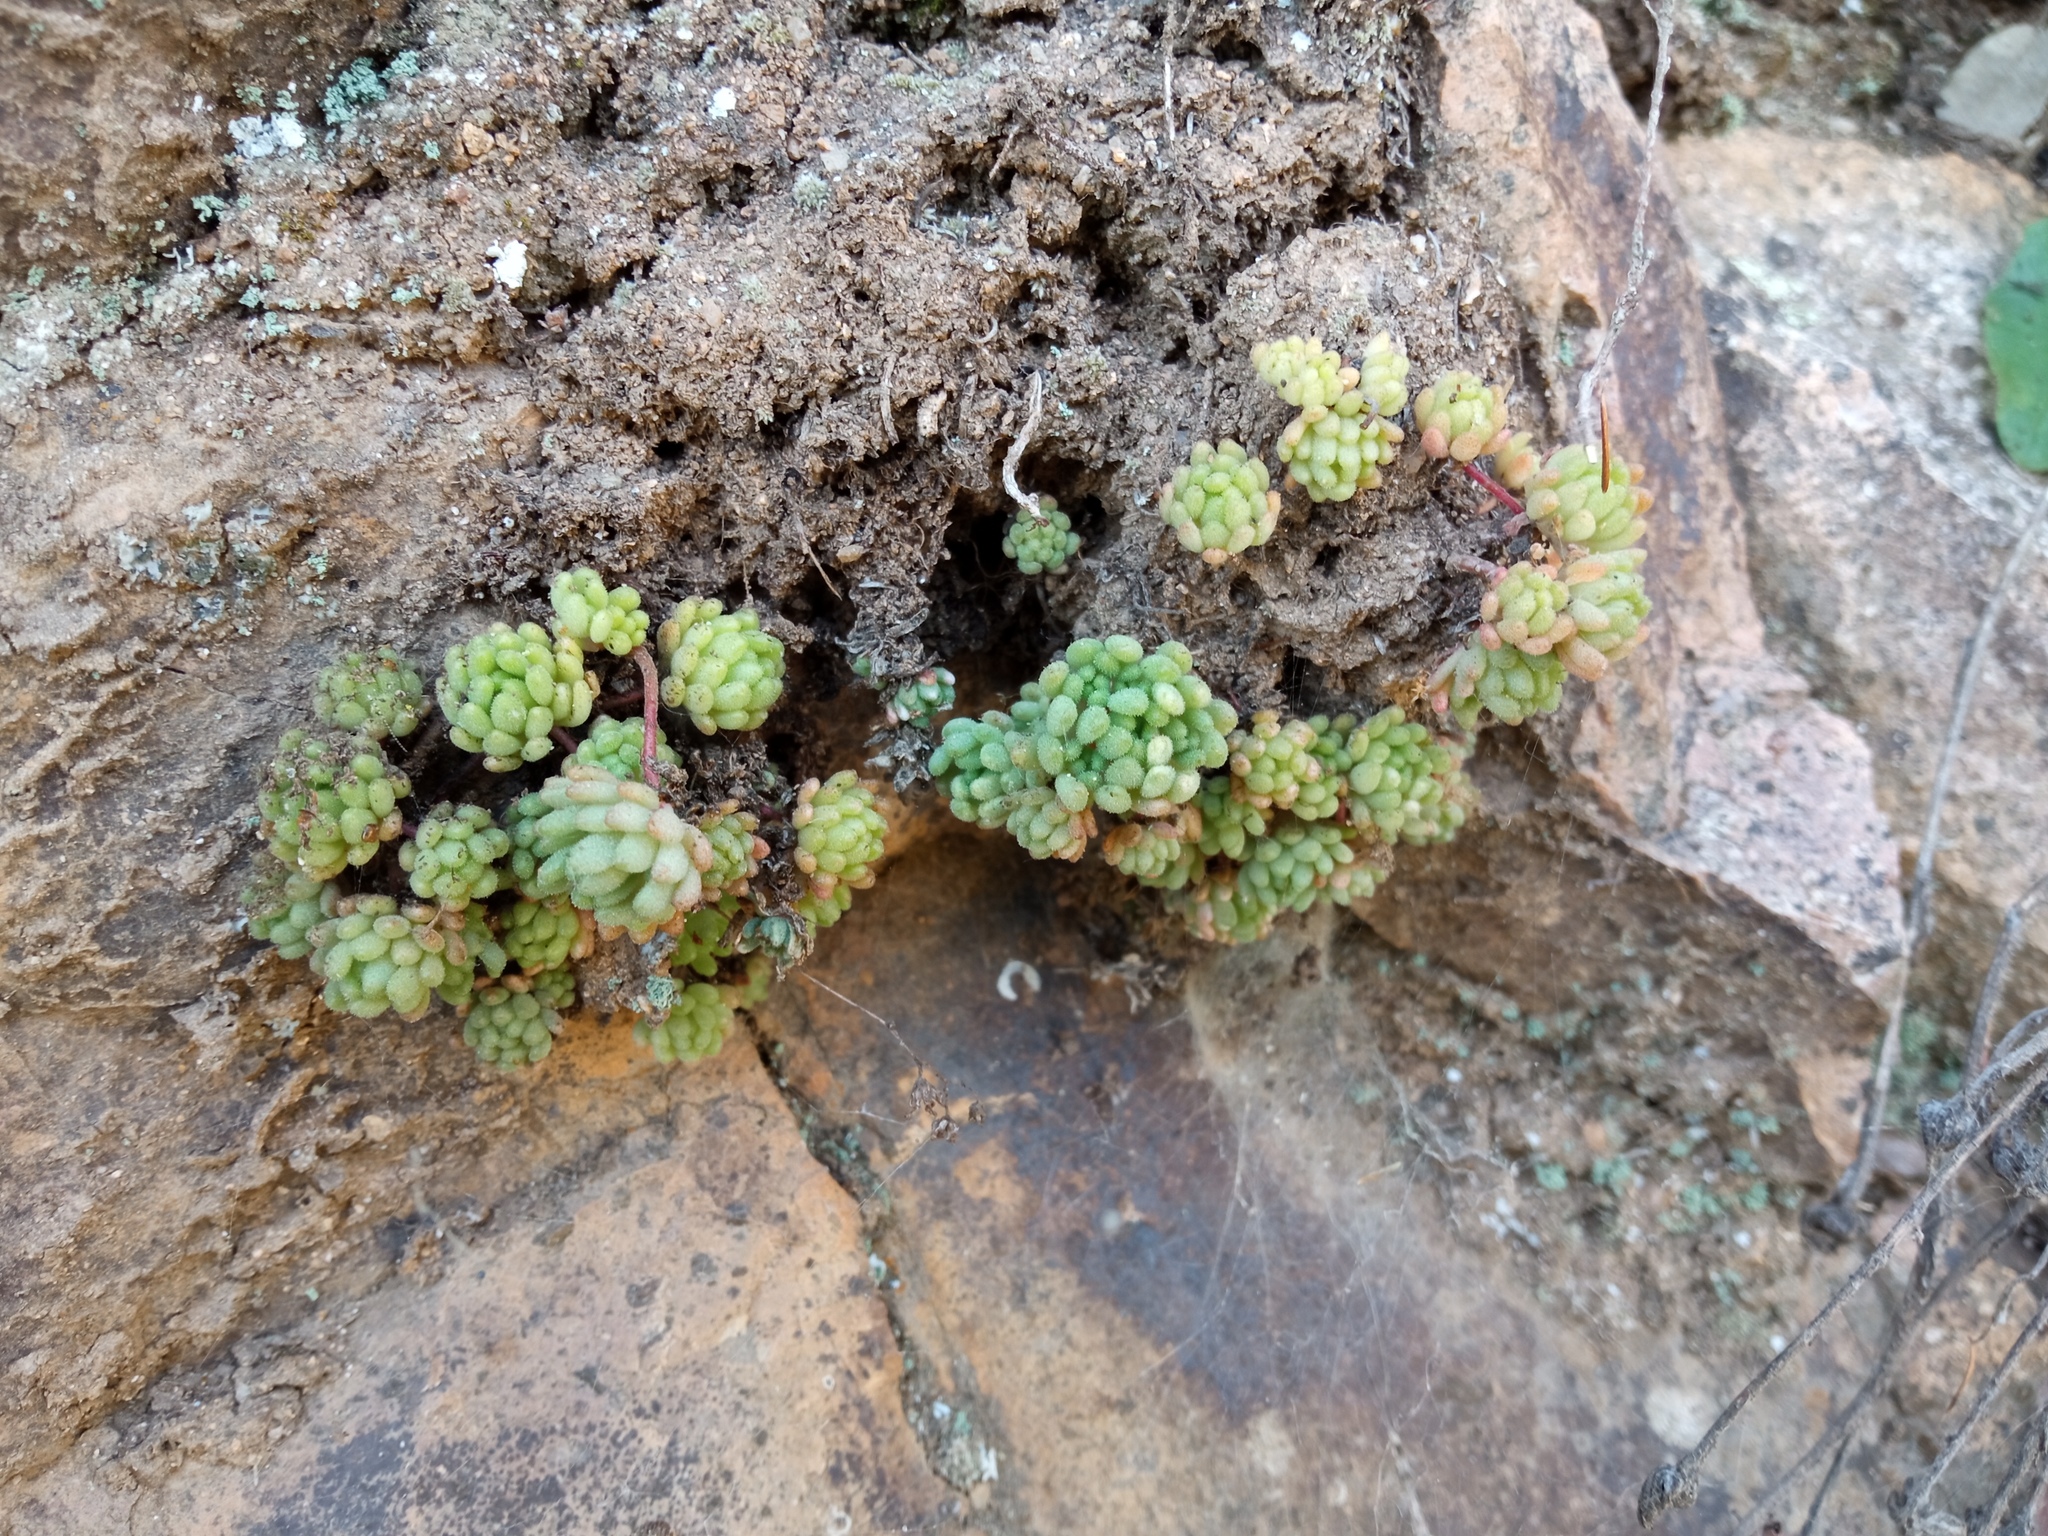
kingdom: Plantae
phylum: Tracheophyta
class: Magnoliopsida
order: Saxifragales
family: Crassulaceae
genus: Sedum
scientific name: Sedum hirsutum
